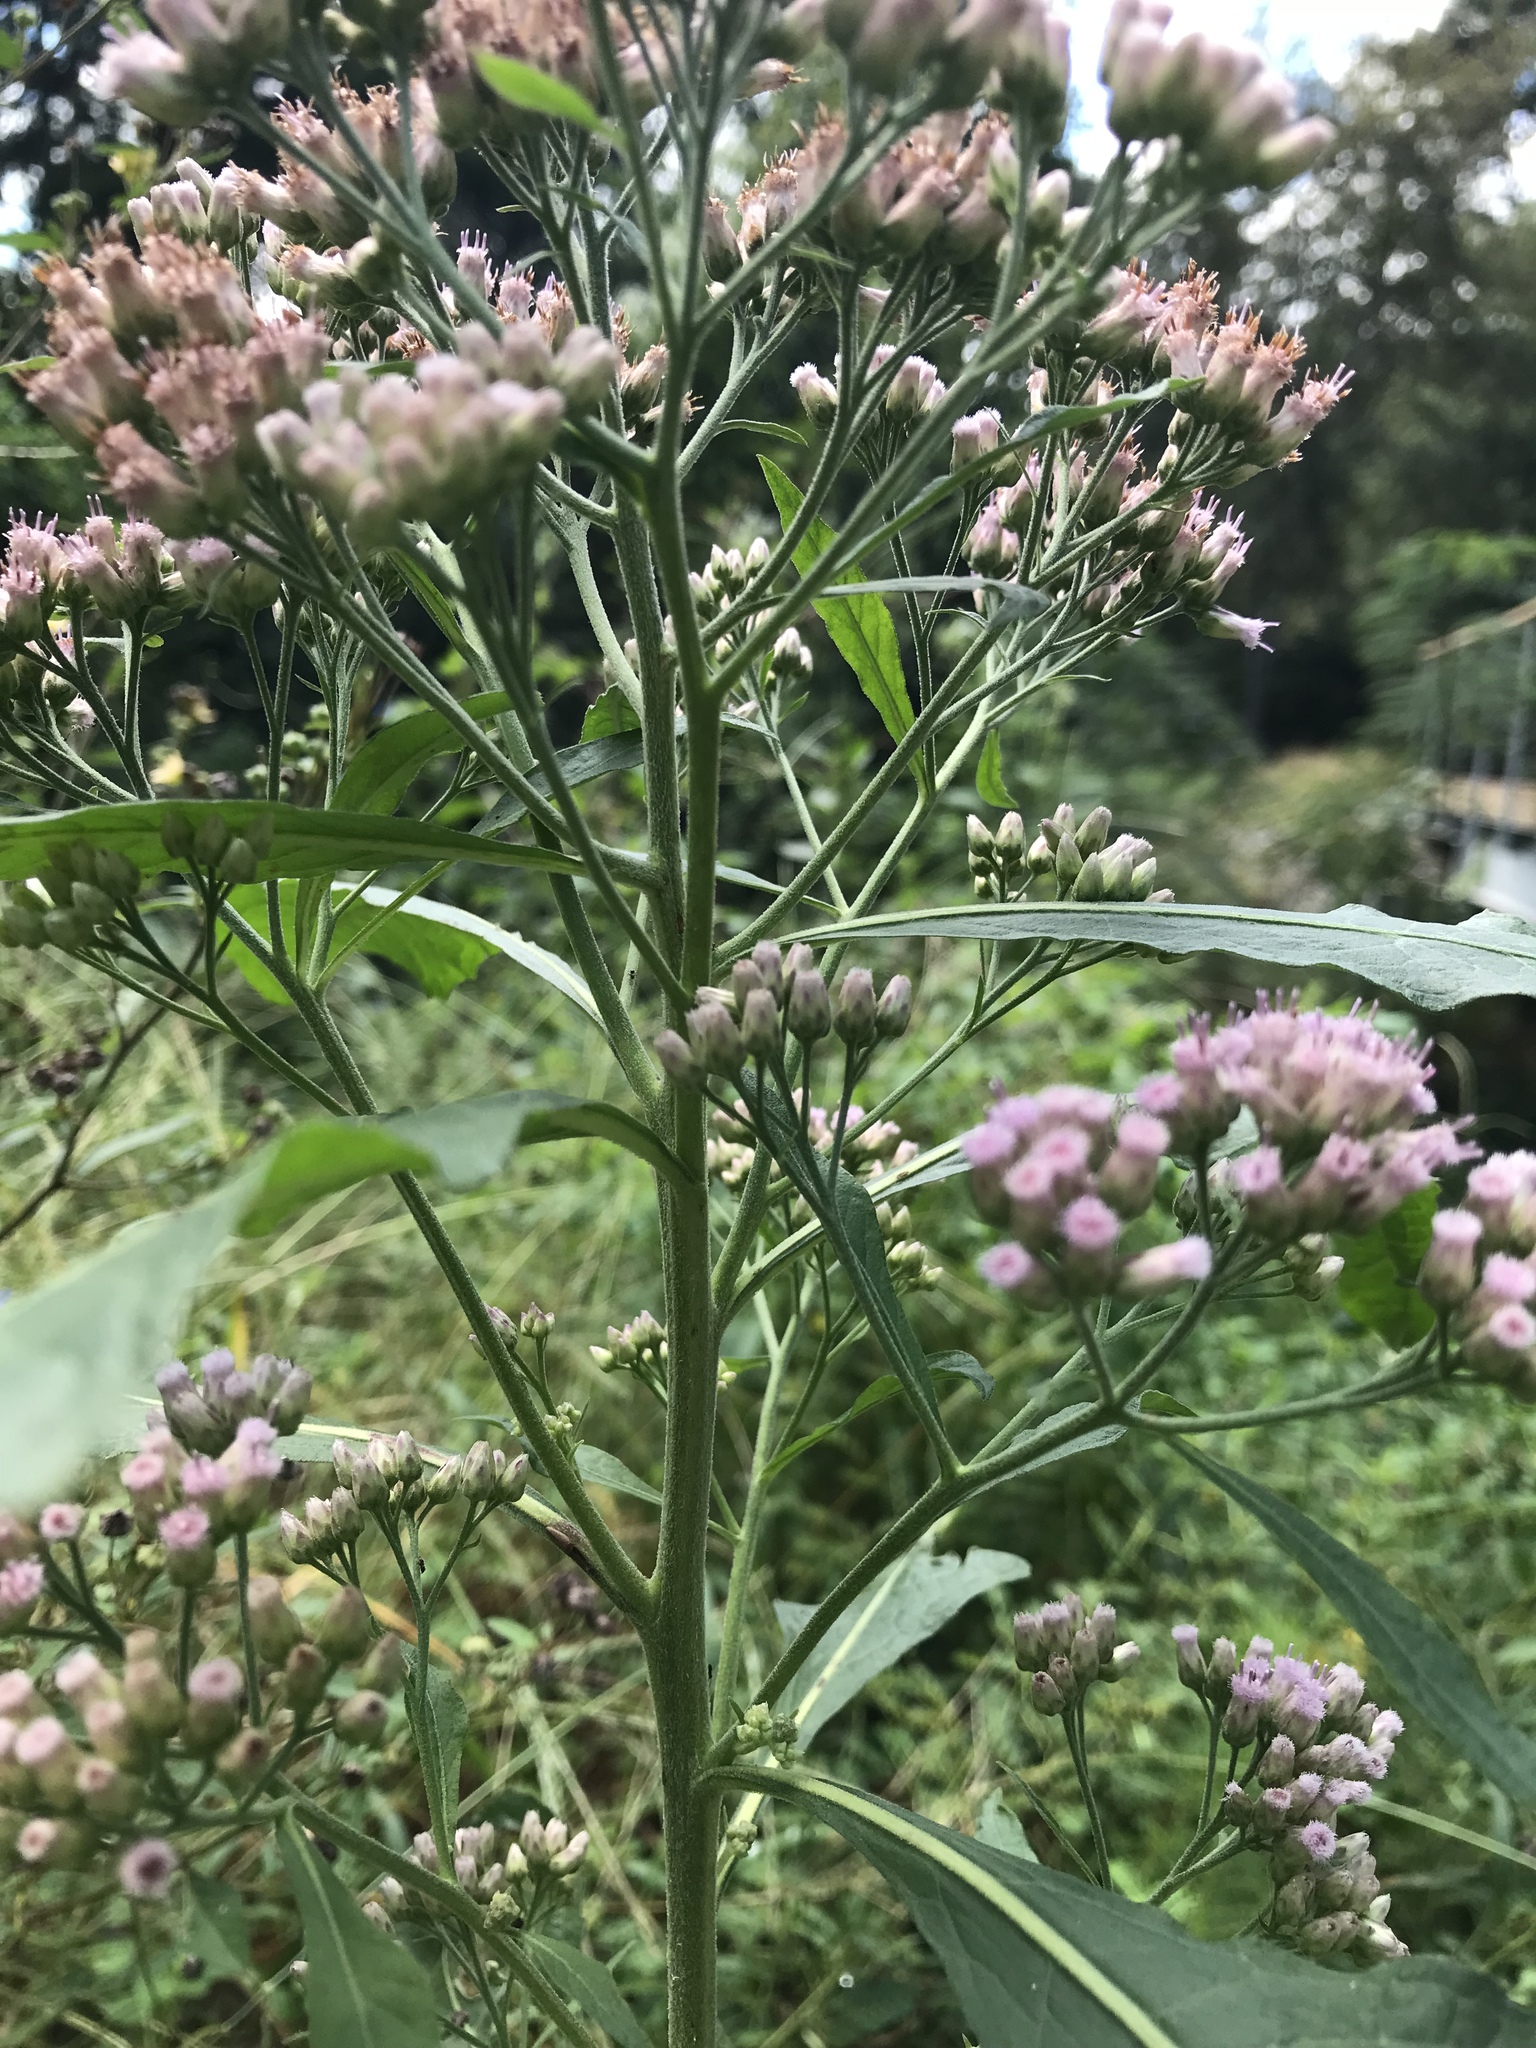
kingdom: Plantae
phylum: Tracheophyta
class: Magnoliopsida
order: Asterales
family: Asteraceae
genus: Pluchea
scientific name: Pluchea camphorata
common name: Camphor pluchea
